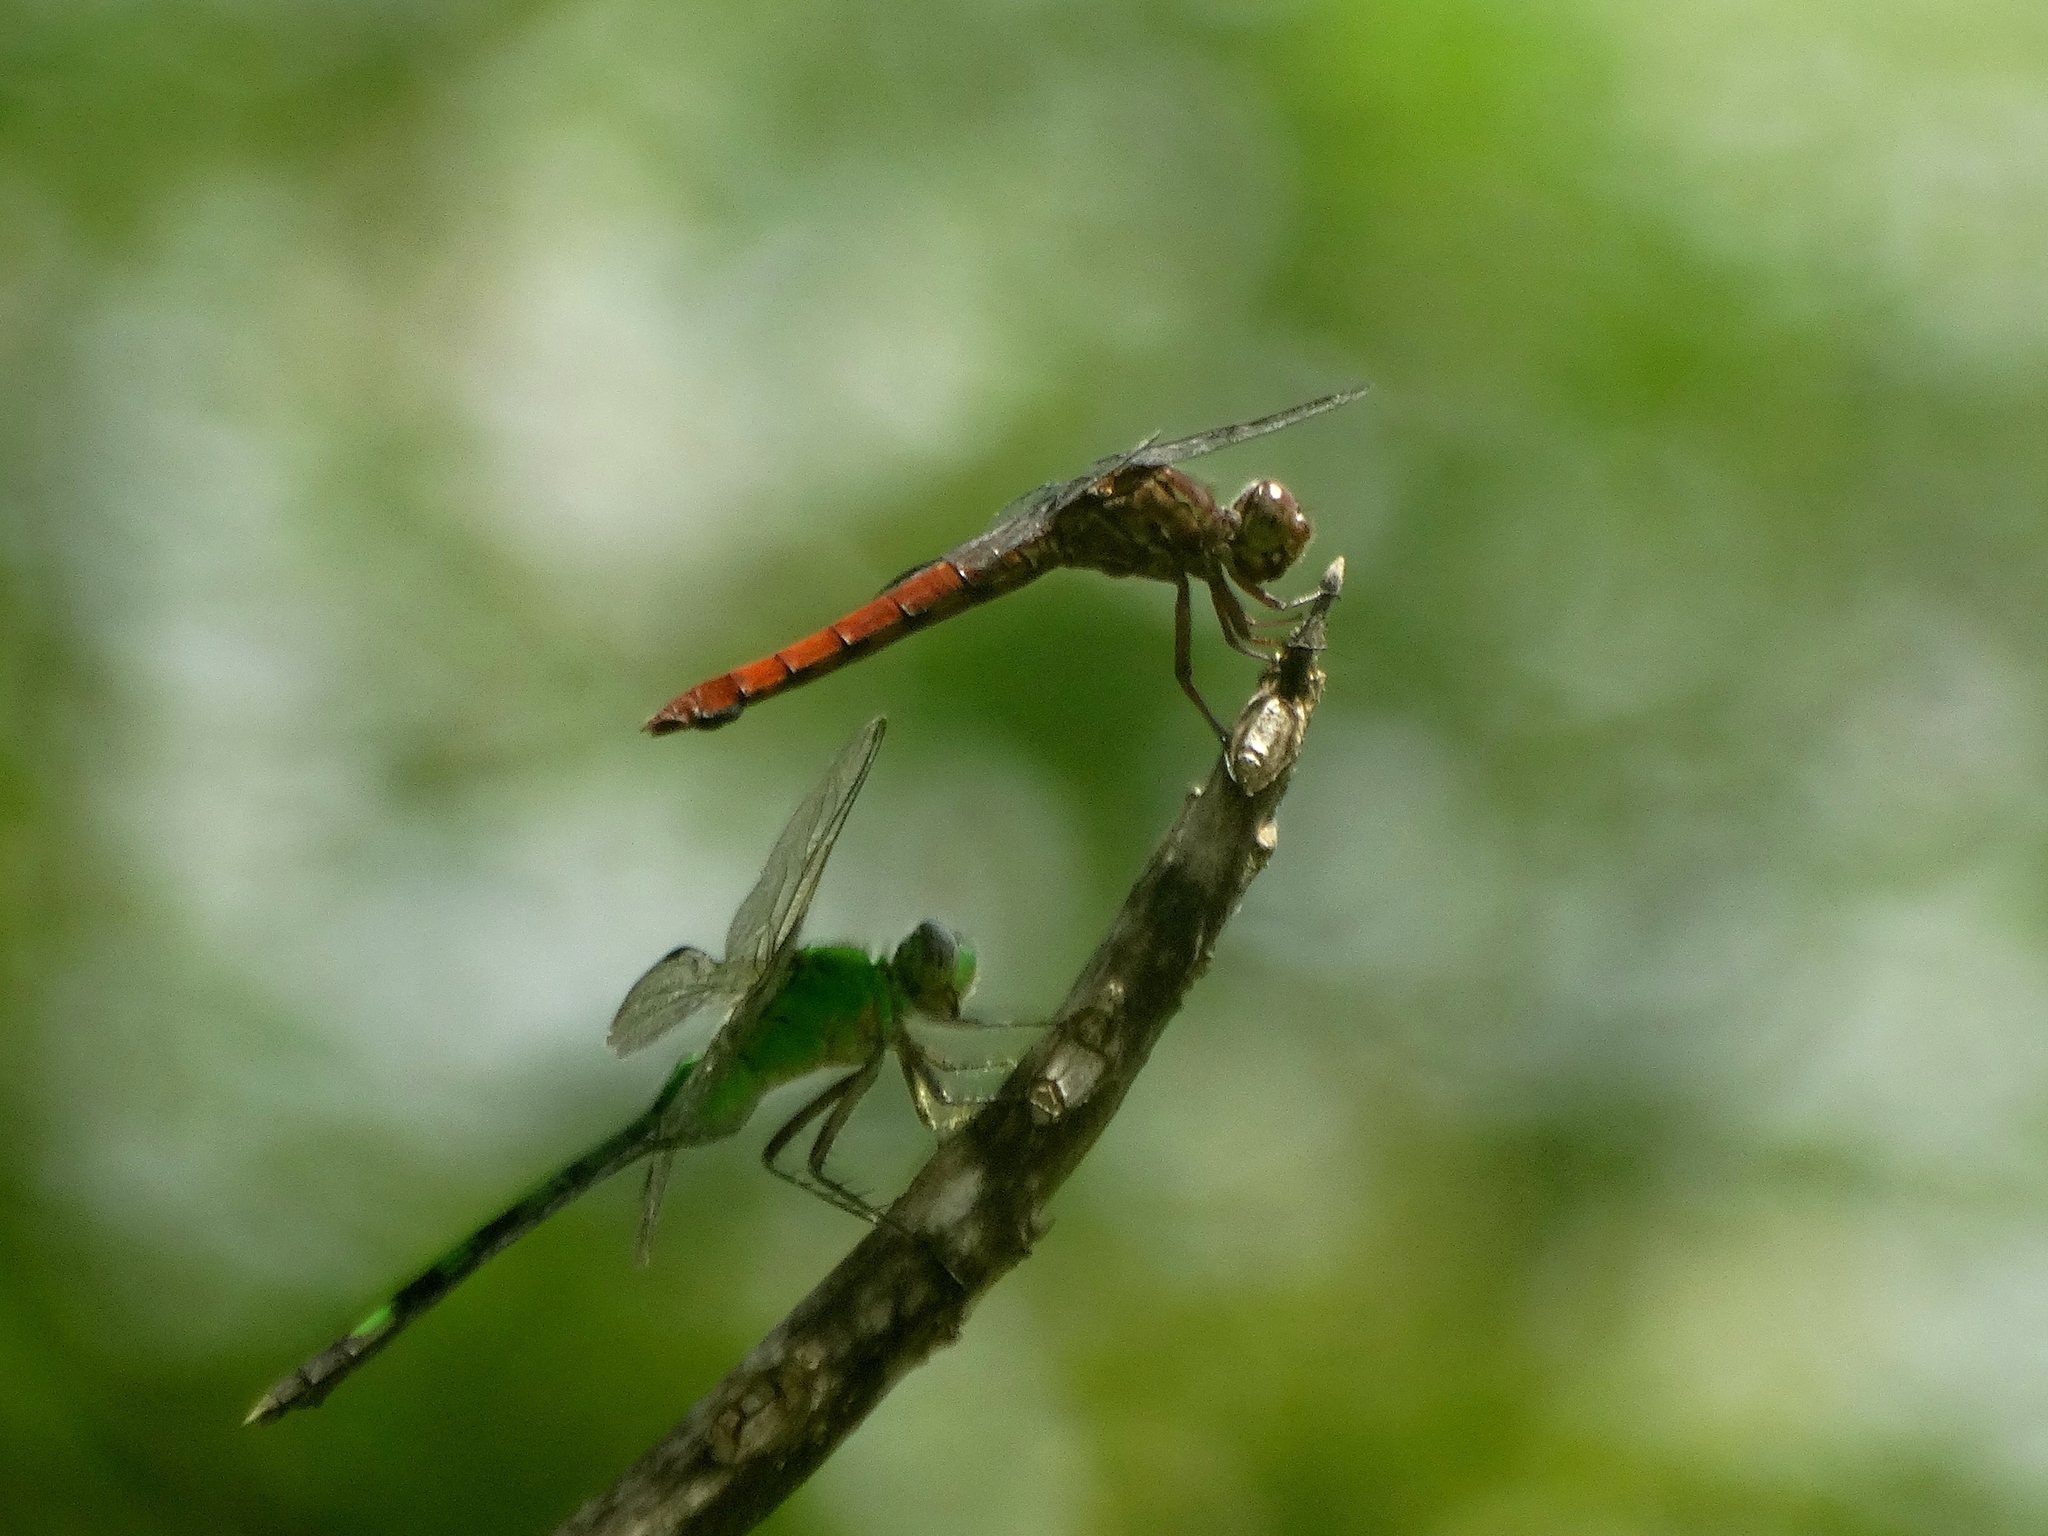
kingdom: Animalia
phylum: Arthropoda
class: Insecta
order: Odonata
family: Libellulidae
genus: Orthemis
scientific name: Orthemis
